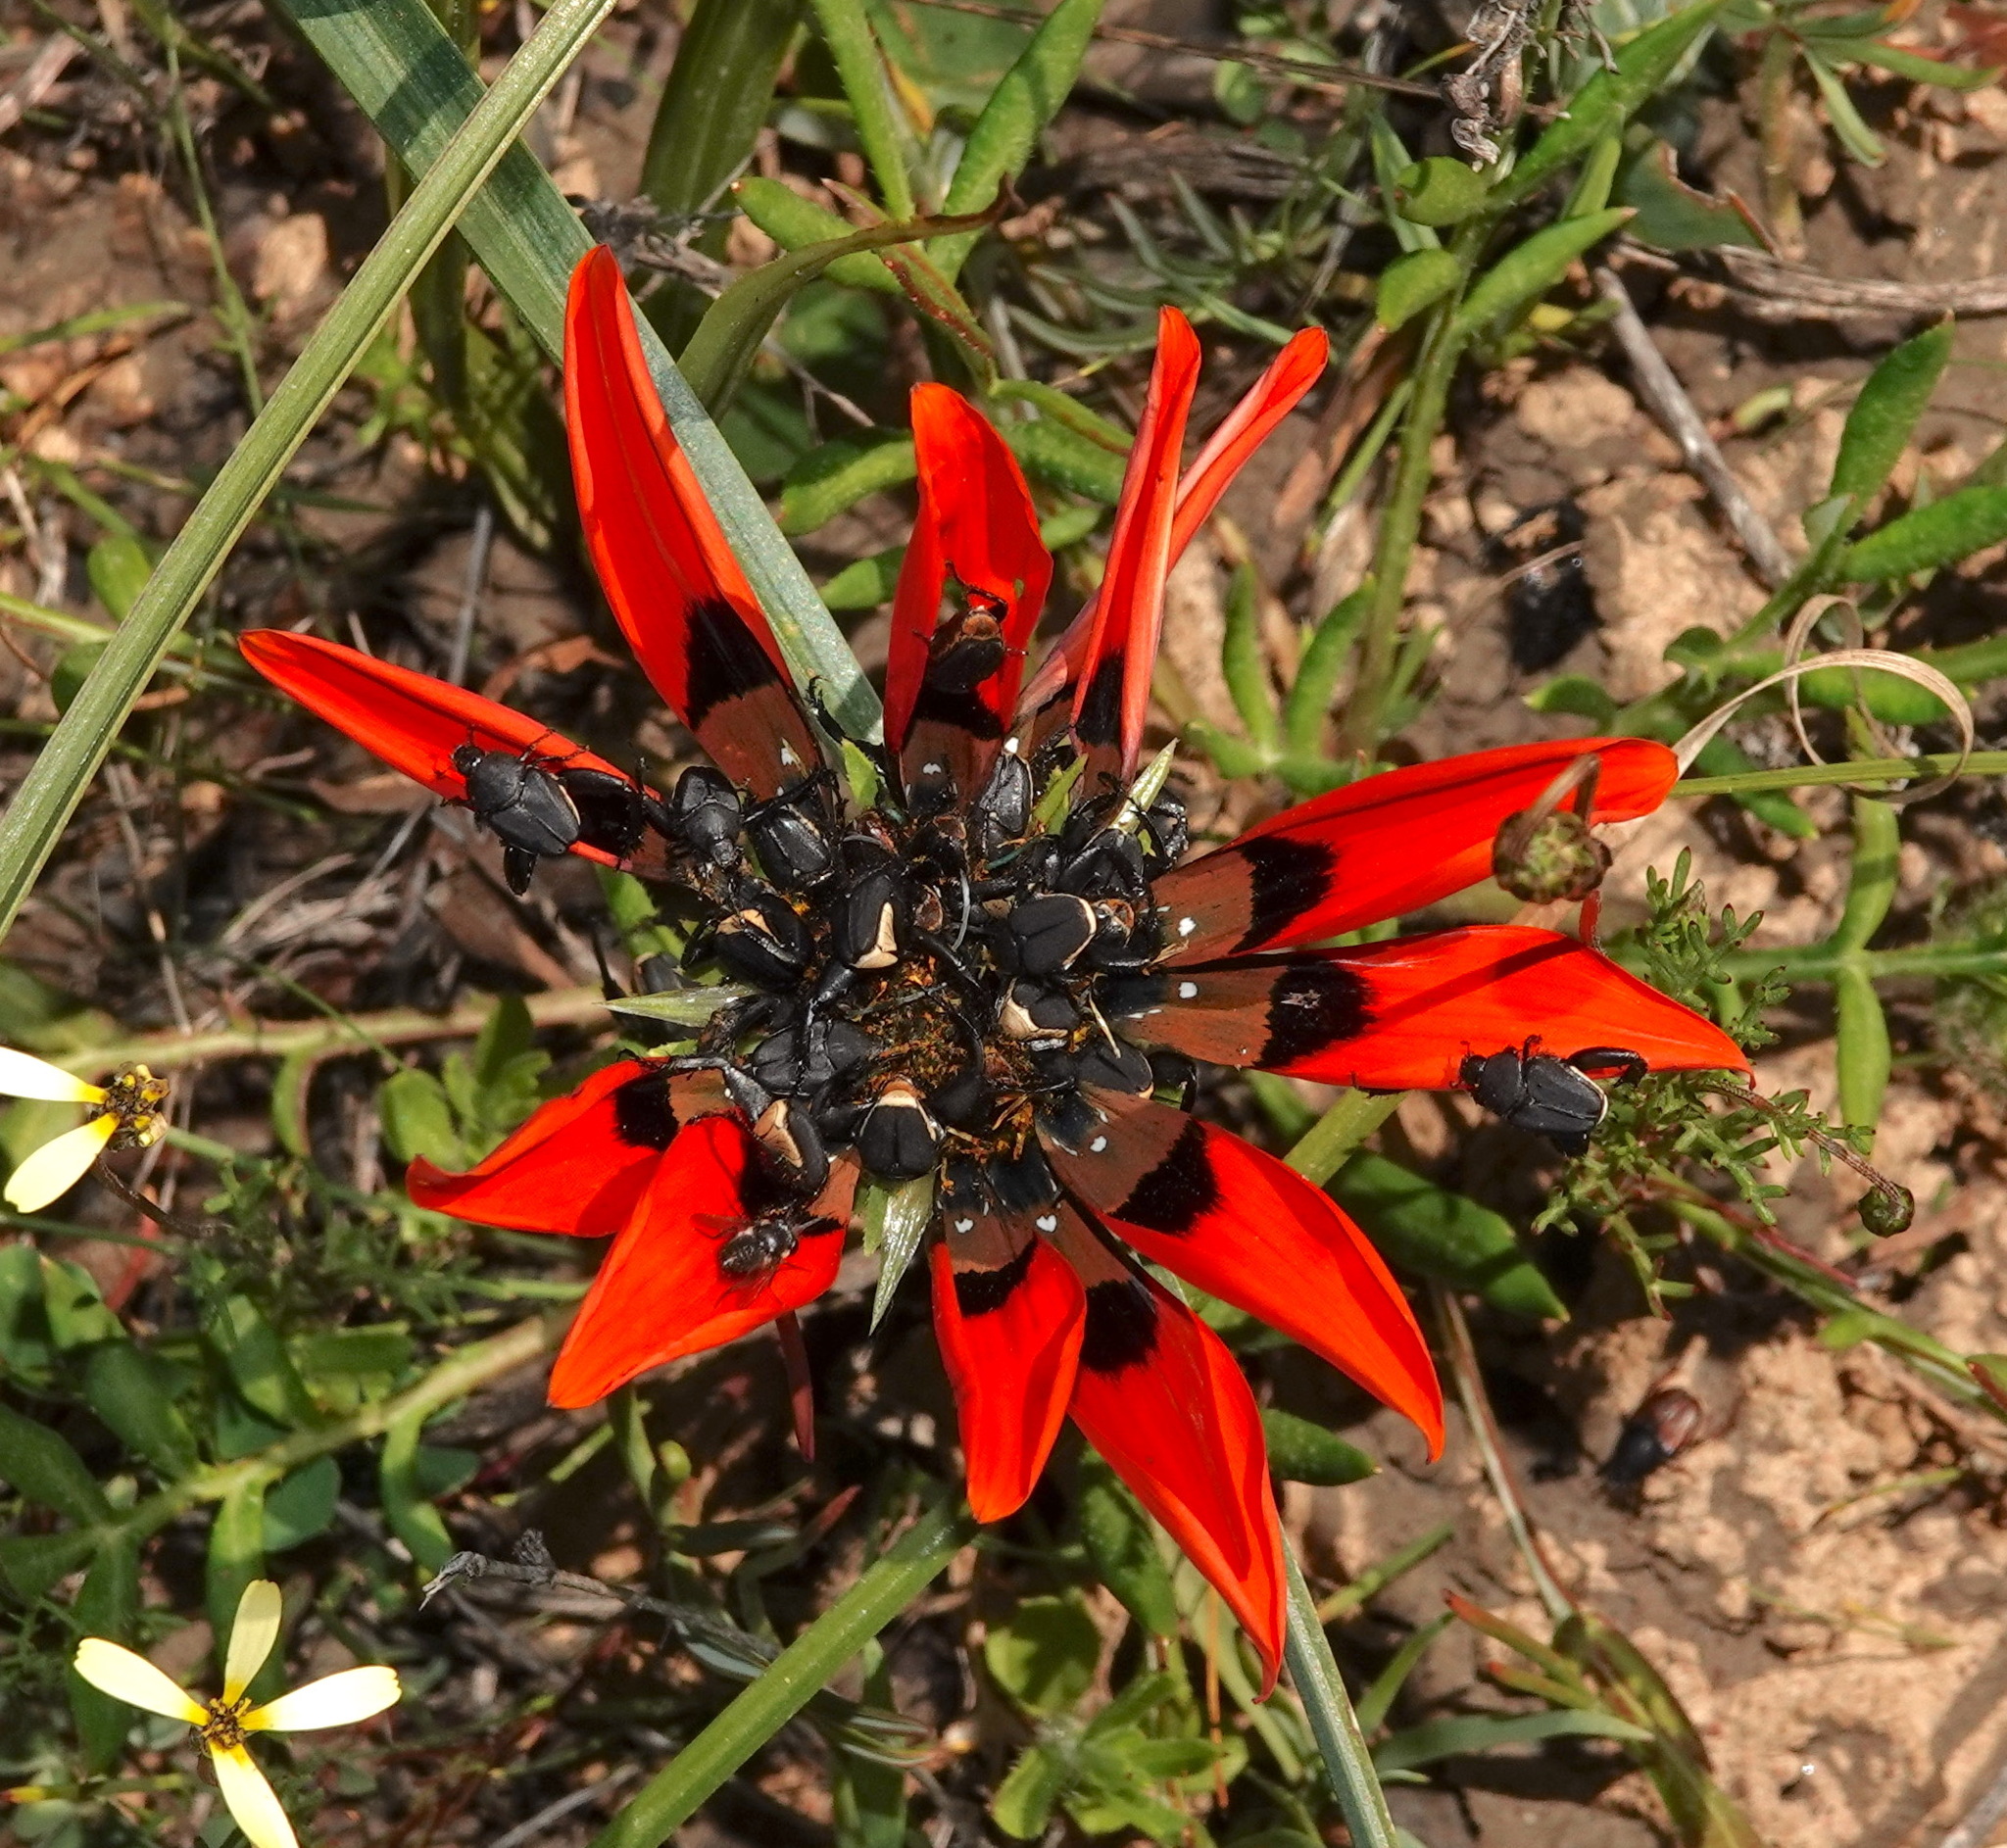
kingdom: Plantae
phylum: Tracheophyta
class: Magnoliopsida
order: Asterales
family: Asteraceae
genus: Gazania
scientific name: Gazania rigida
